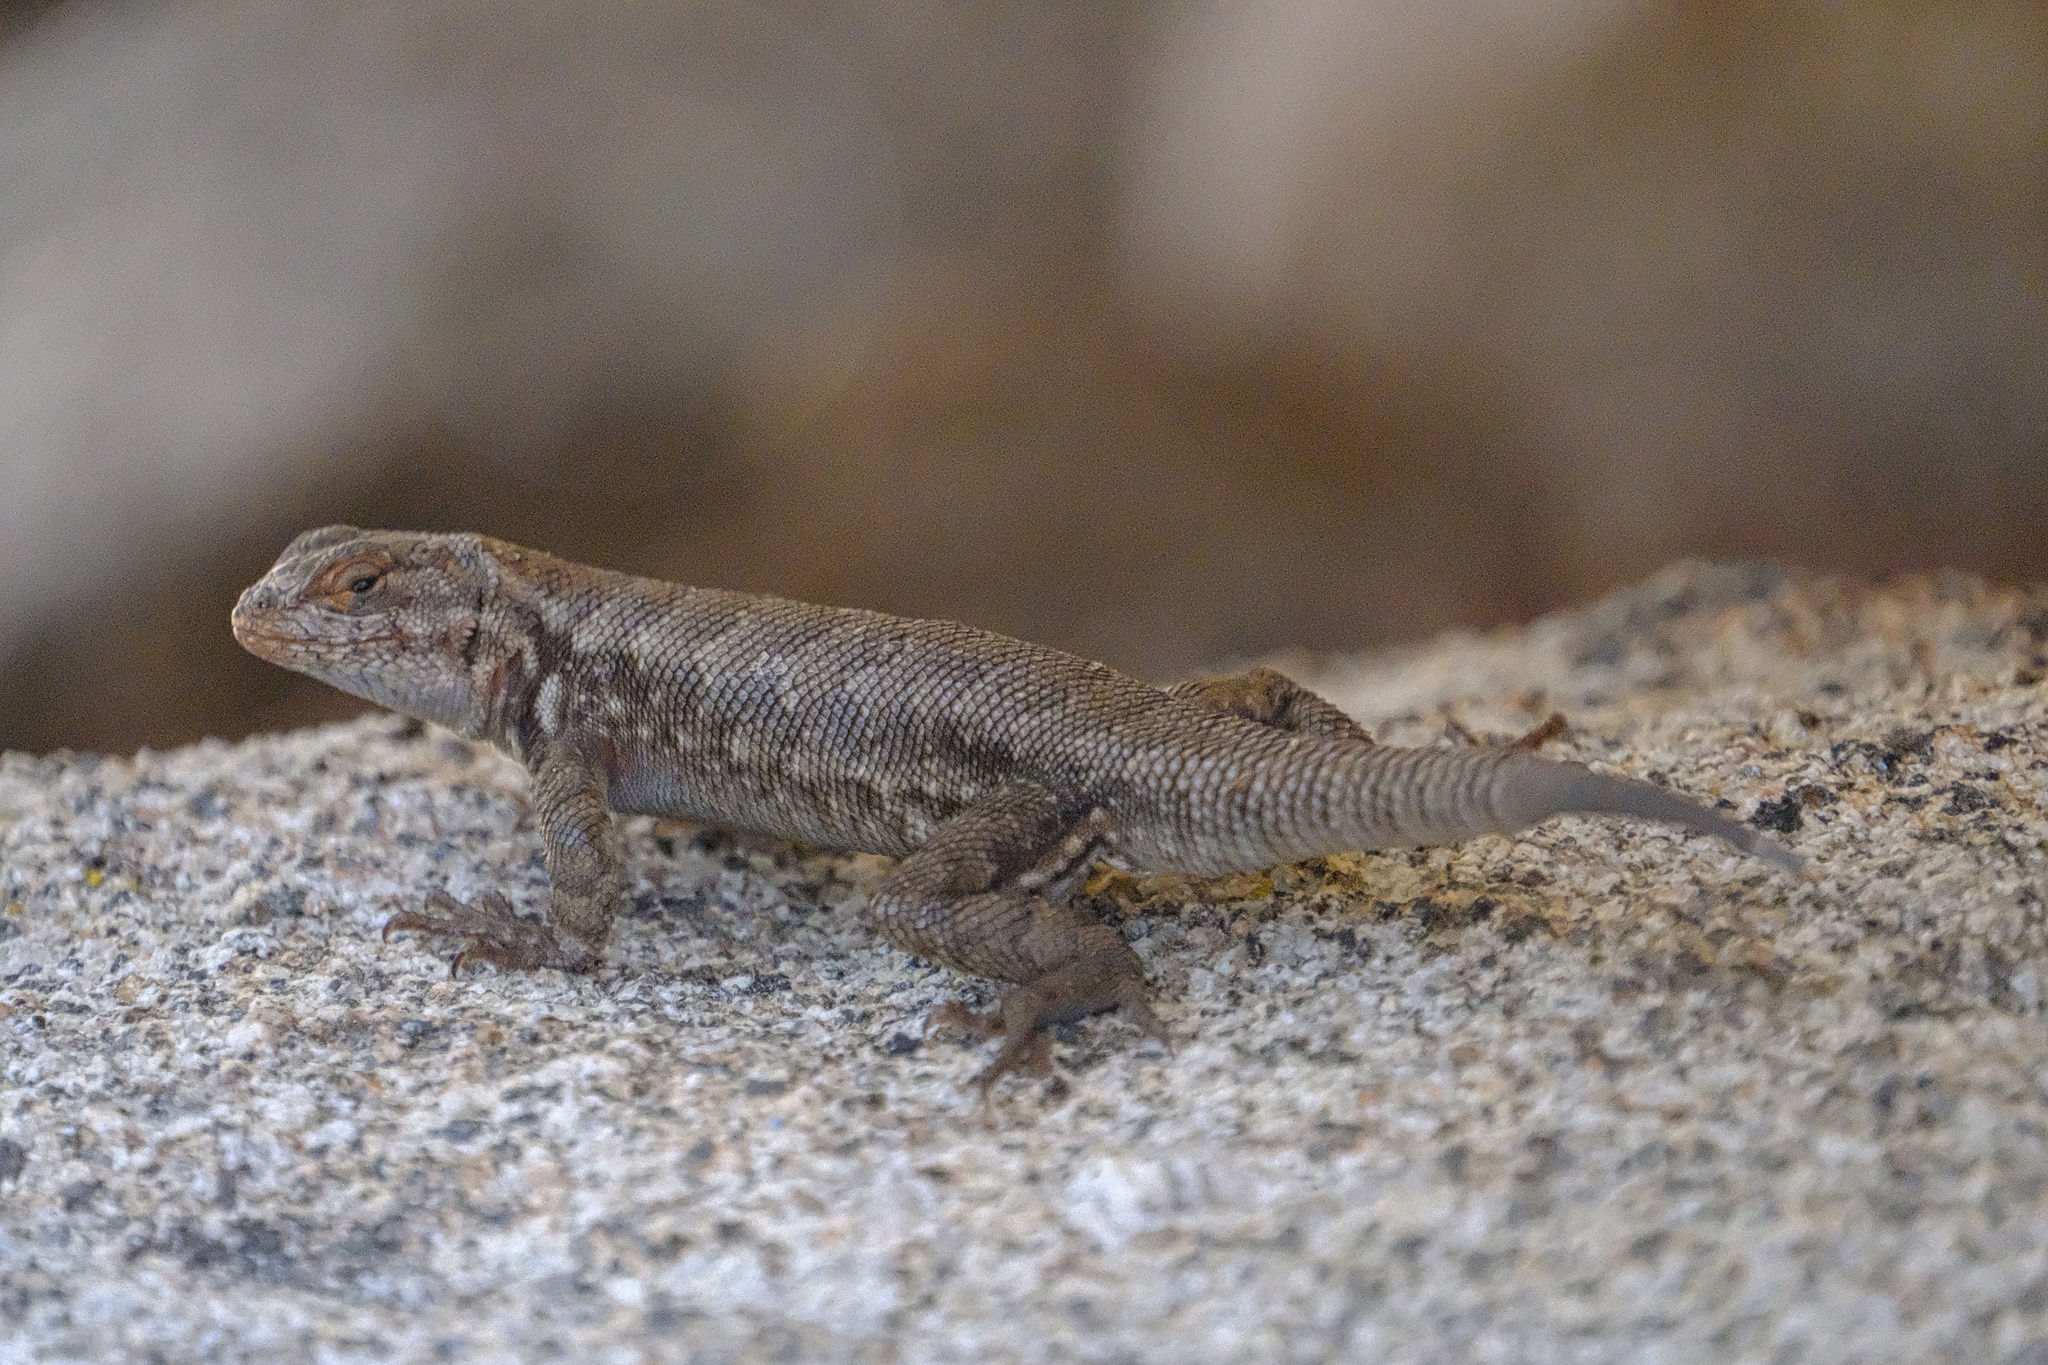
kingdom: Animalia
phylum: Chordata
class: Squamata
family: Phrynosomatidae
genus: Sceloporus
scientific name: Sceloporus graciosus
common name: Sagebrush lizard
